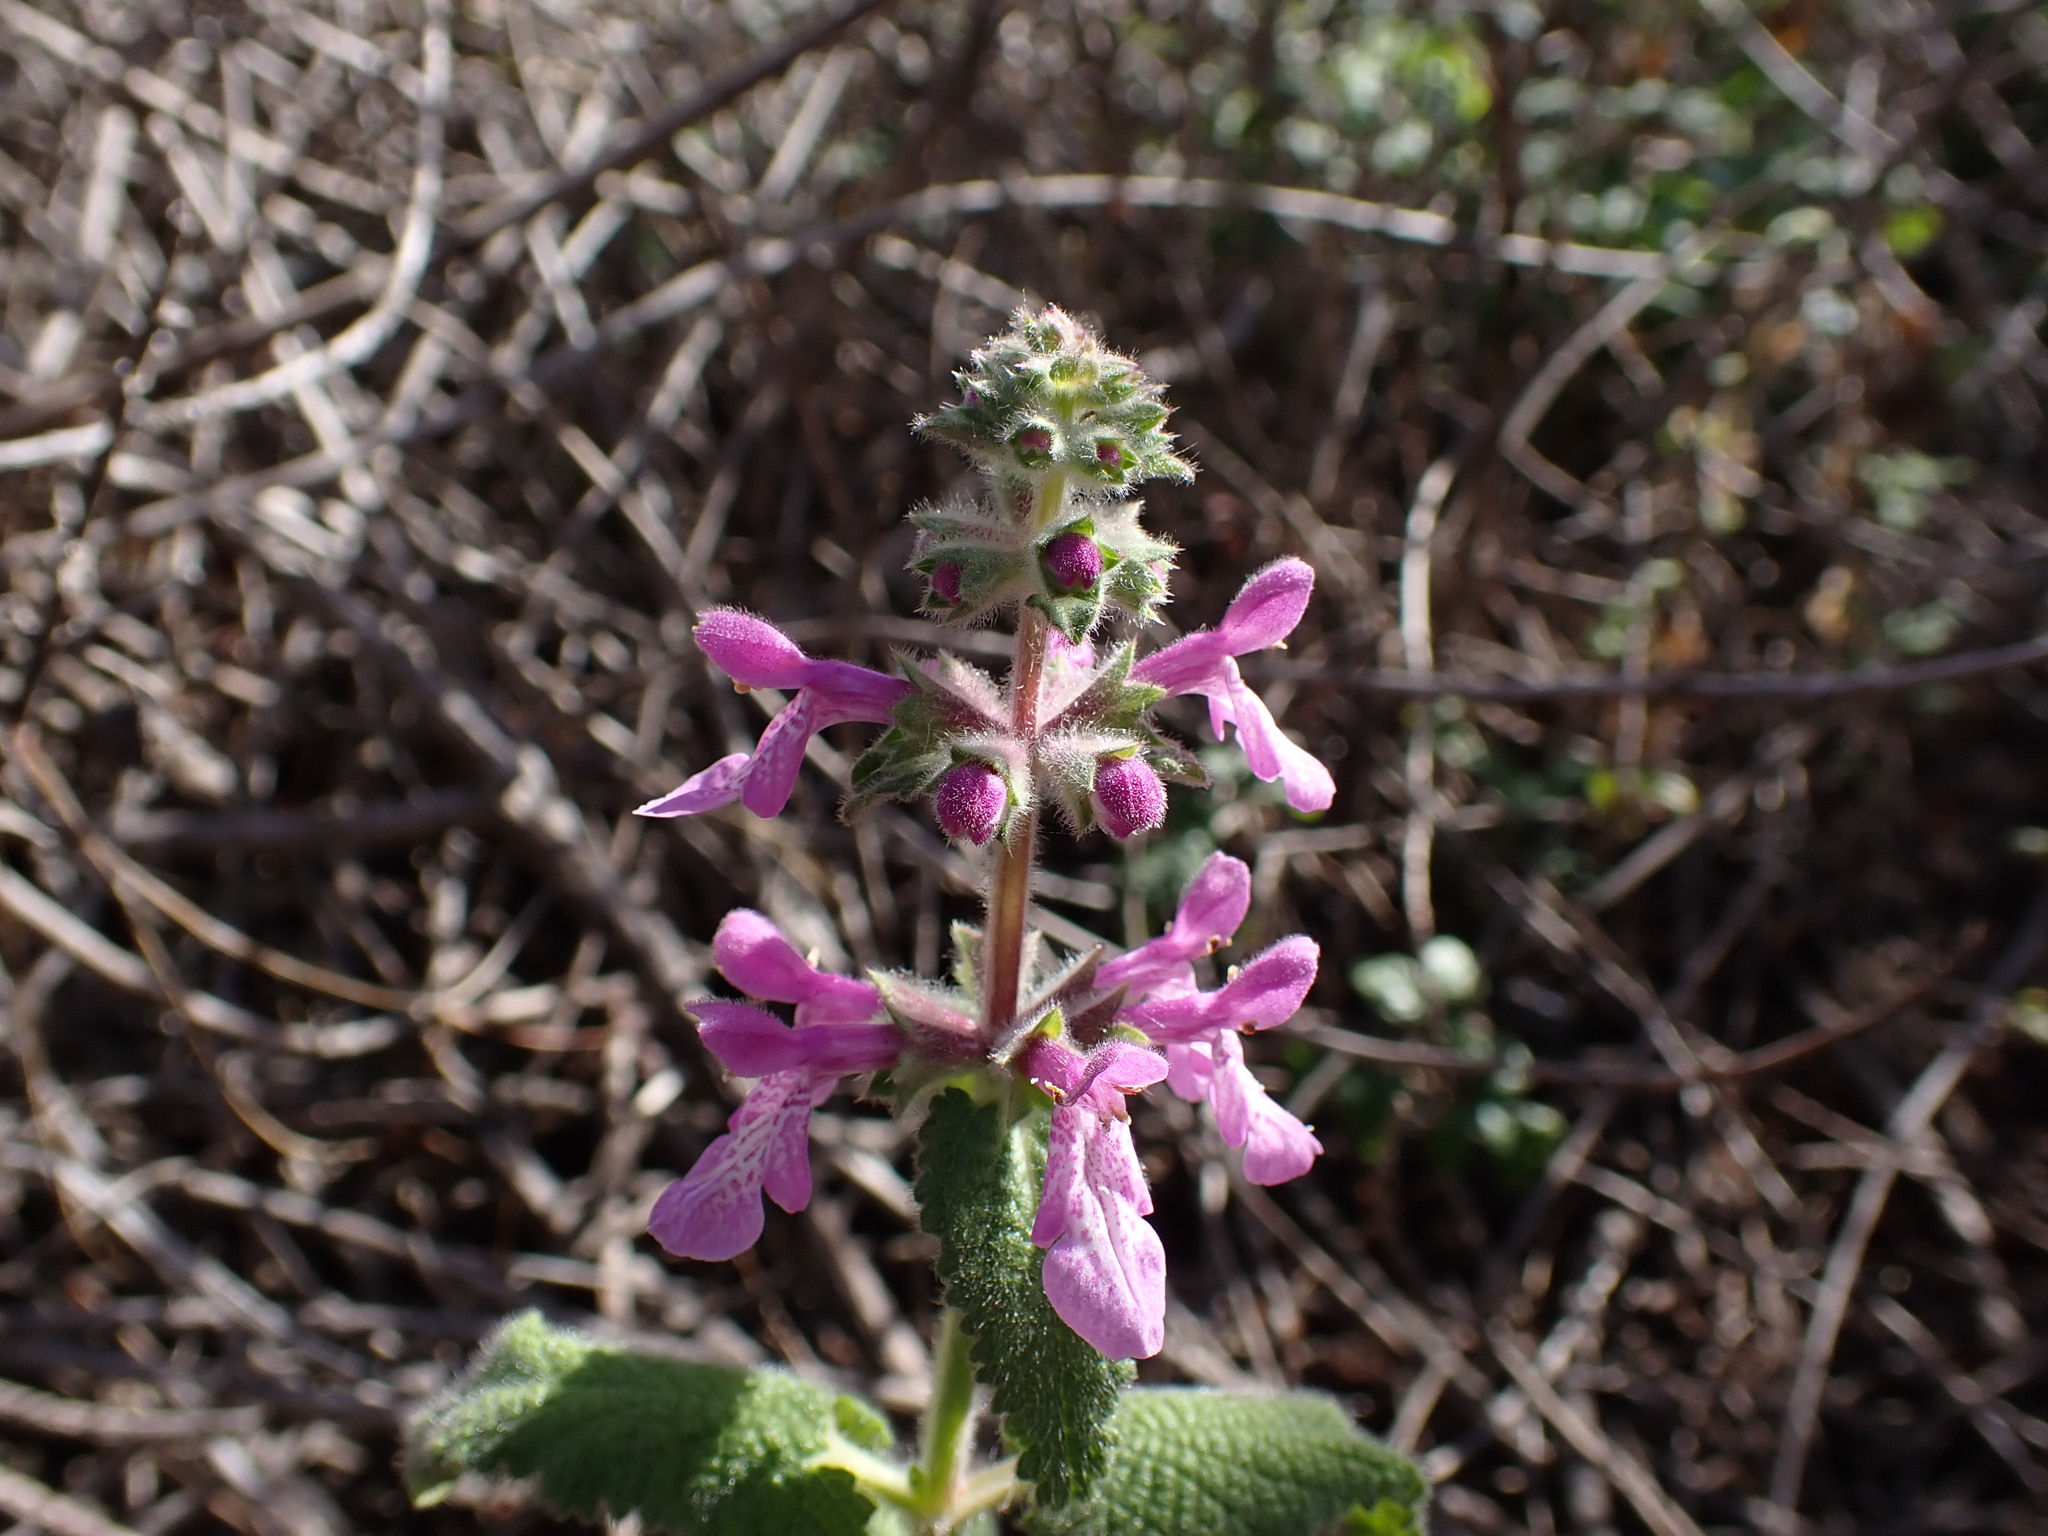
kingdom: Plantae
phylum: Tracheophyta
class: Magnoliopsida
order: Lamiales
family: Lamiaceae
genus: Stachys
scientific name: Stachys bullata
